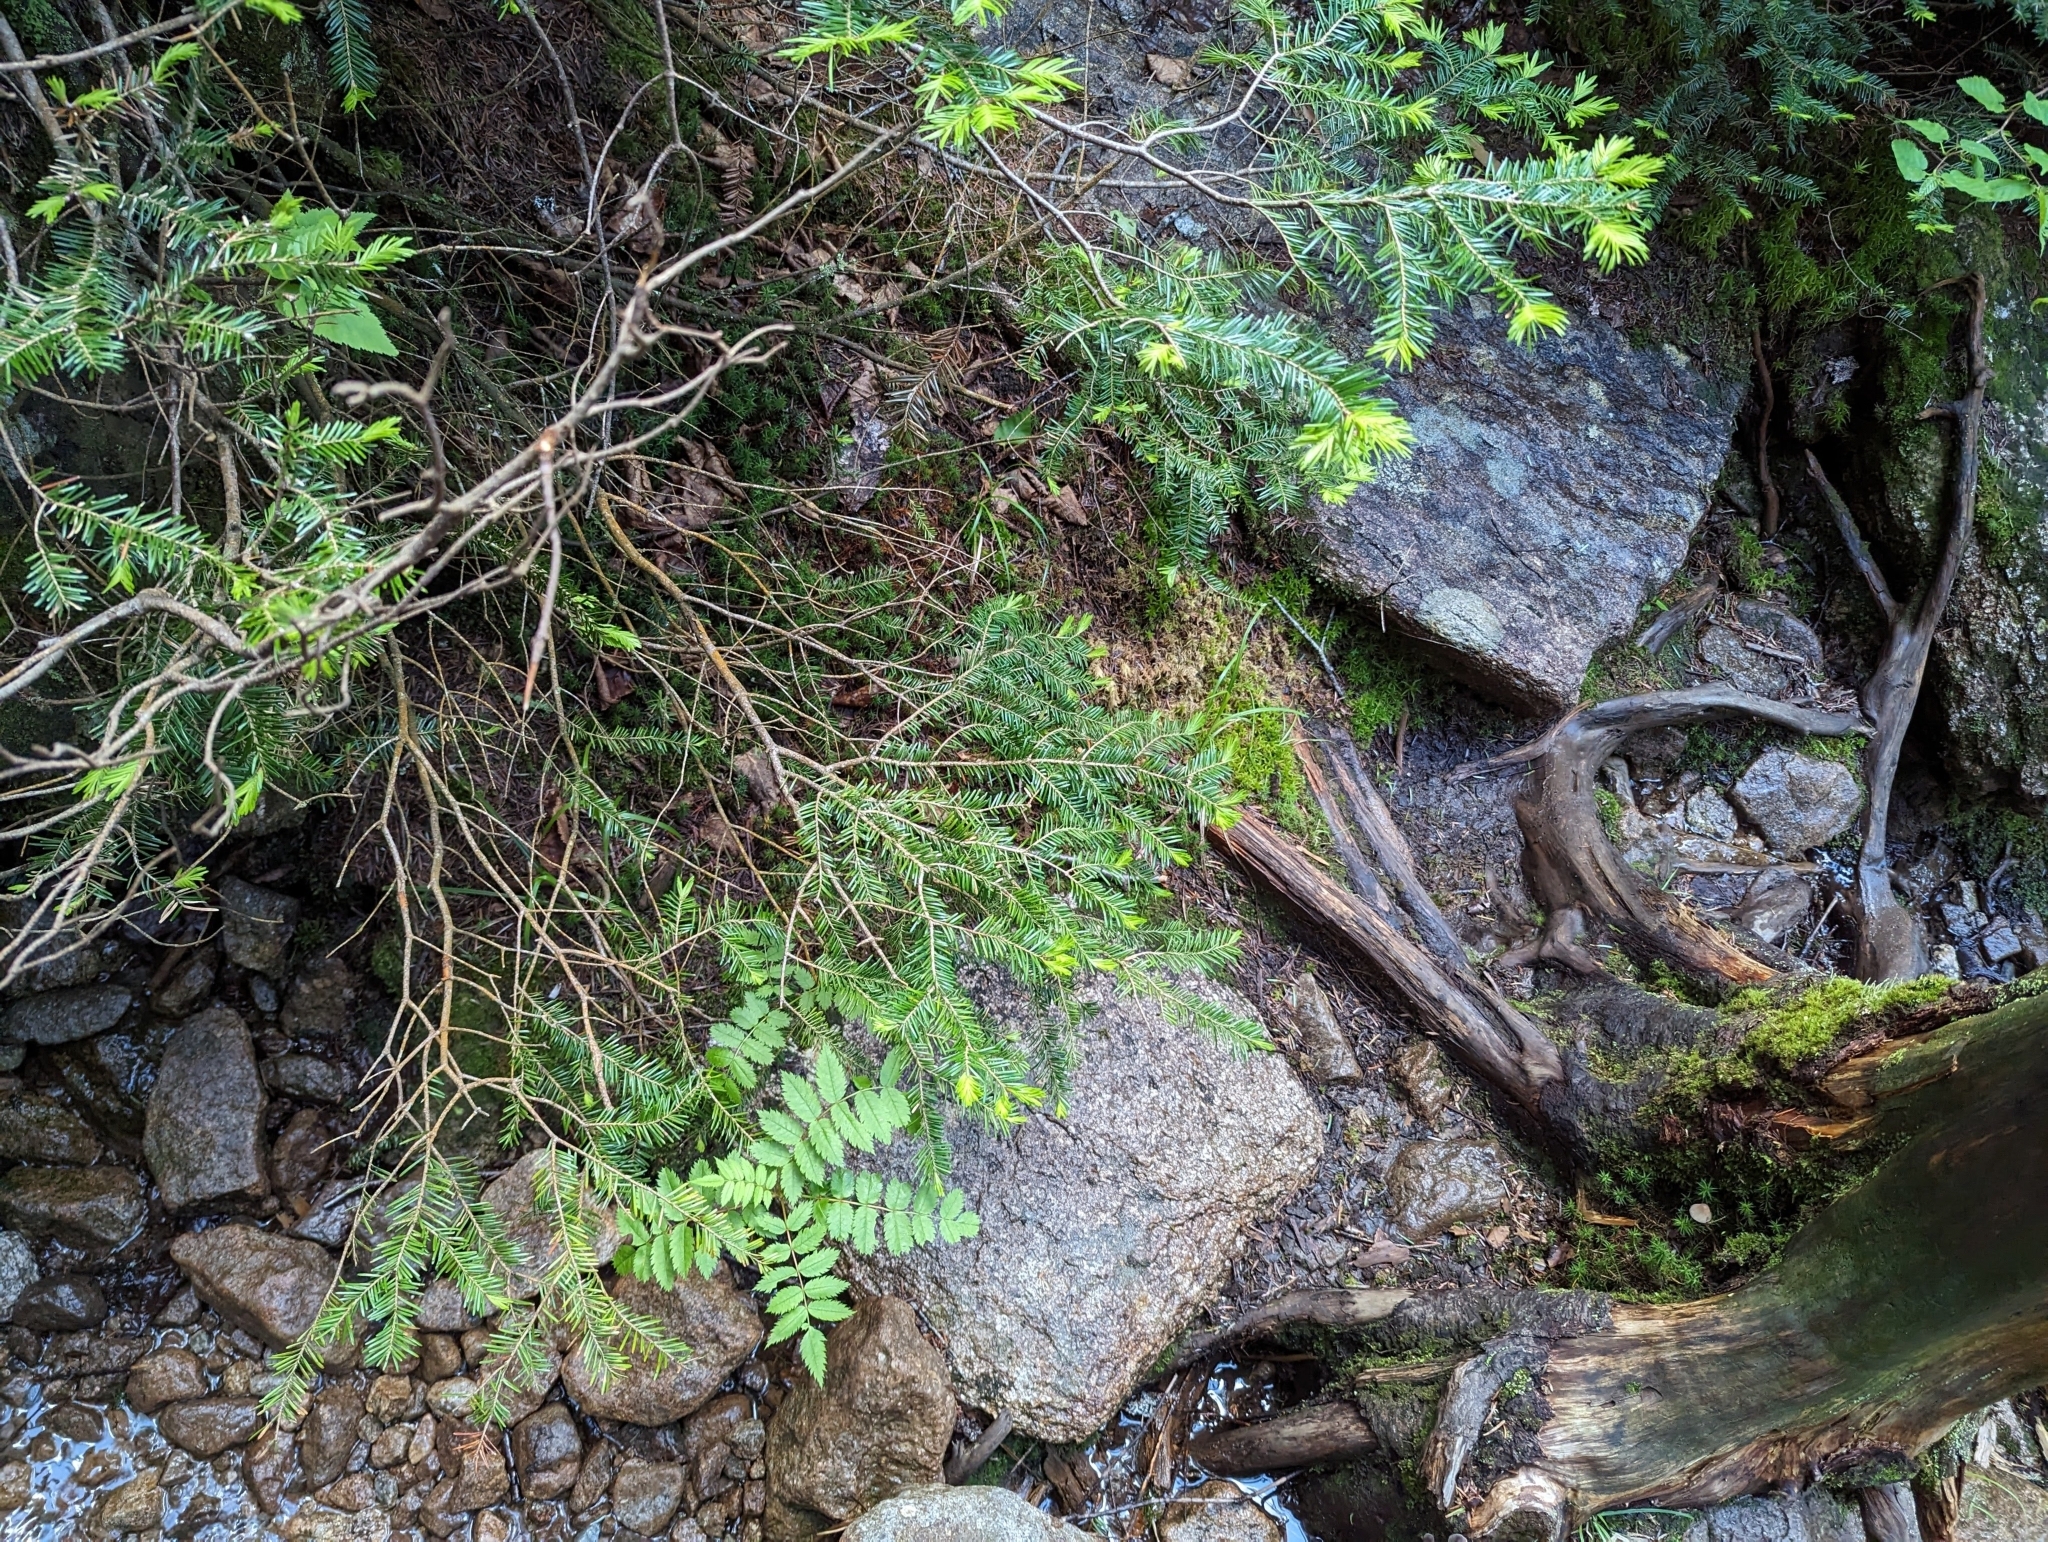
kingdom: Plantae
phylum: Tracheophyta
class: Pinopsida
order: Pinales
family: Pinaceae
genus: Abies
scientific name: Abies balsamea
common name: Balsam fir
